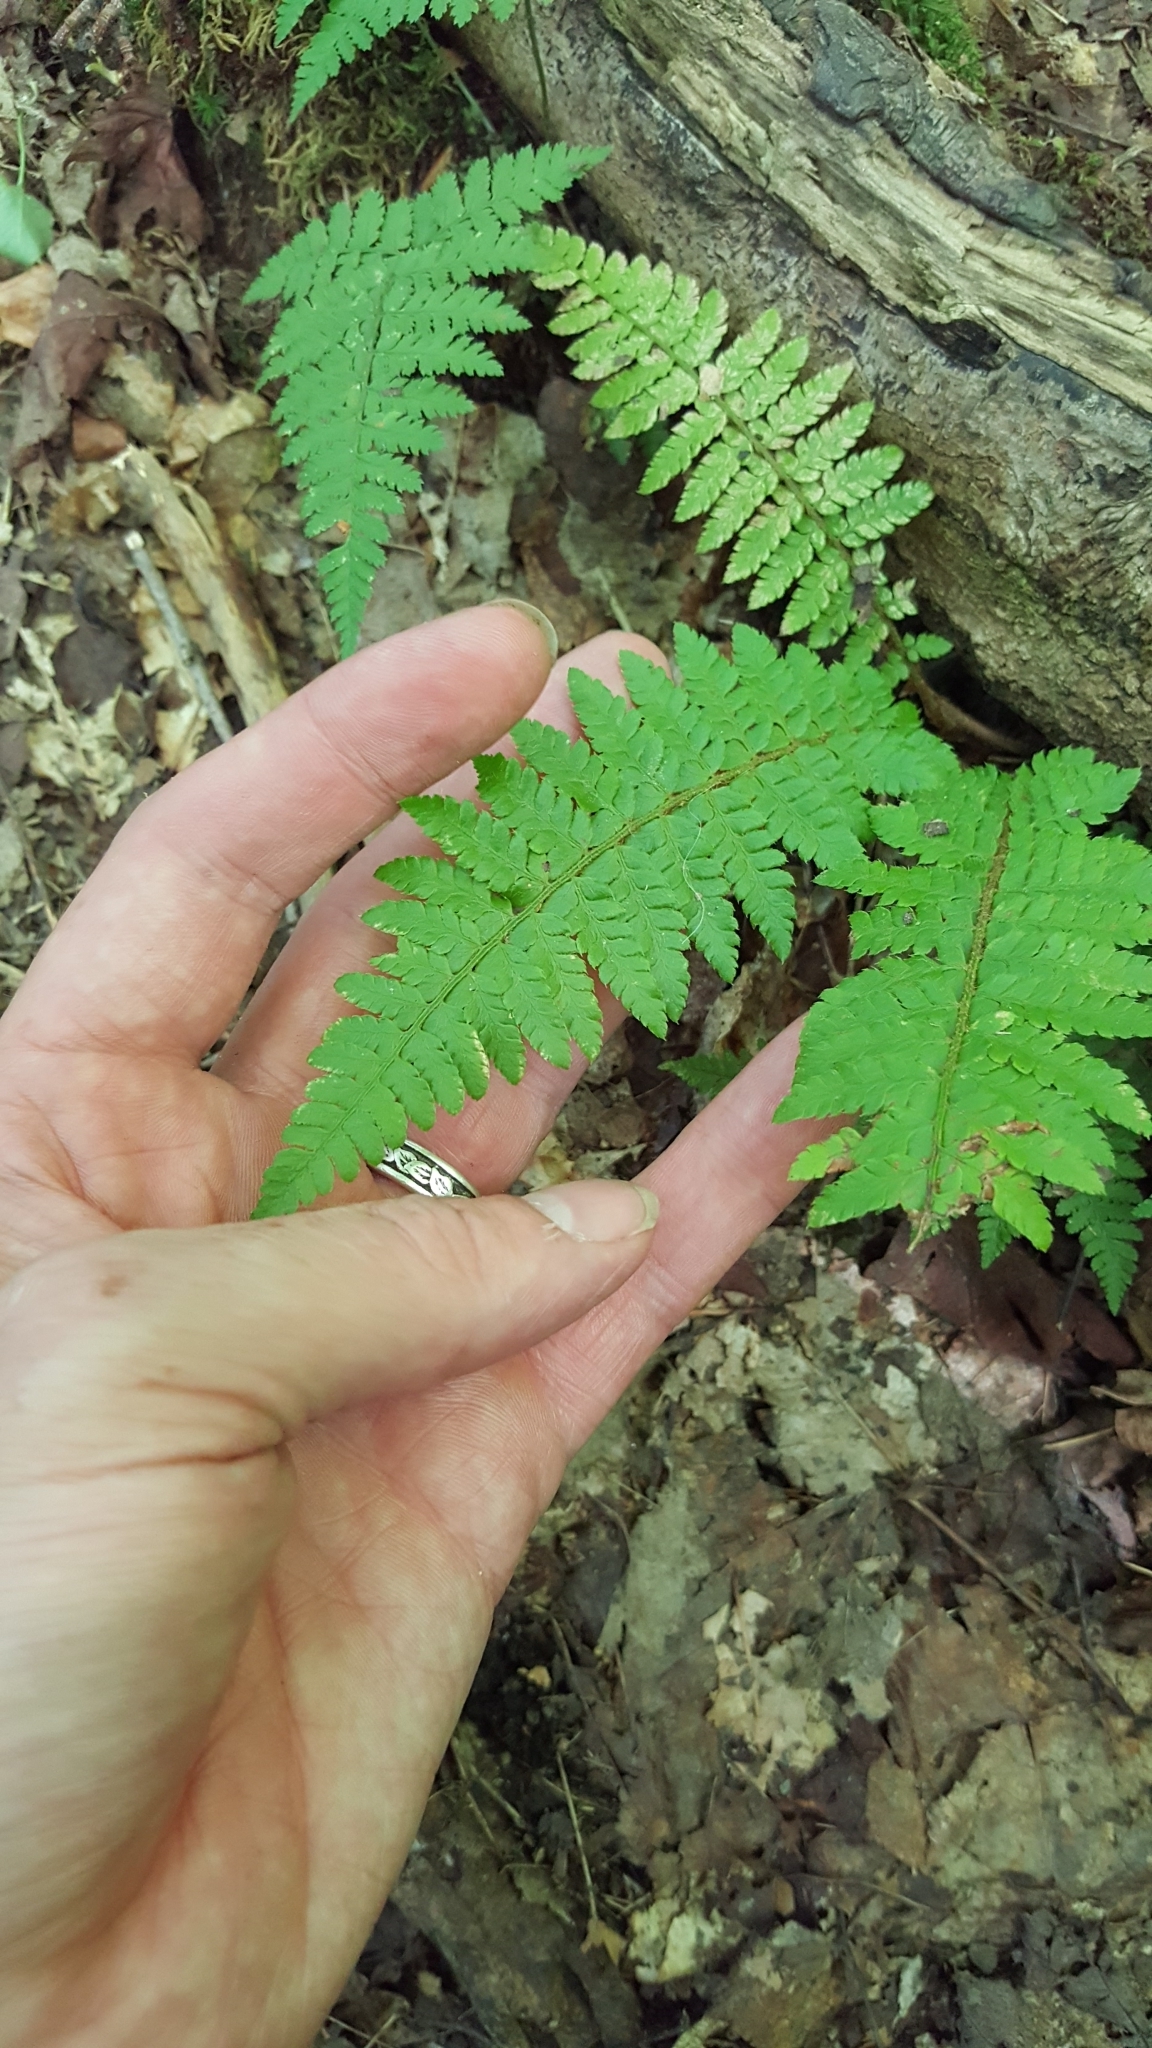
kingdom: Plantae
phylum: Tracheophyta
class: Polypodiopsida
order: Polypodiales
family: Dryopteridaceae
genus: Polystichum
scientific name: Polystichum braunii
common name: Braun's holly fern
